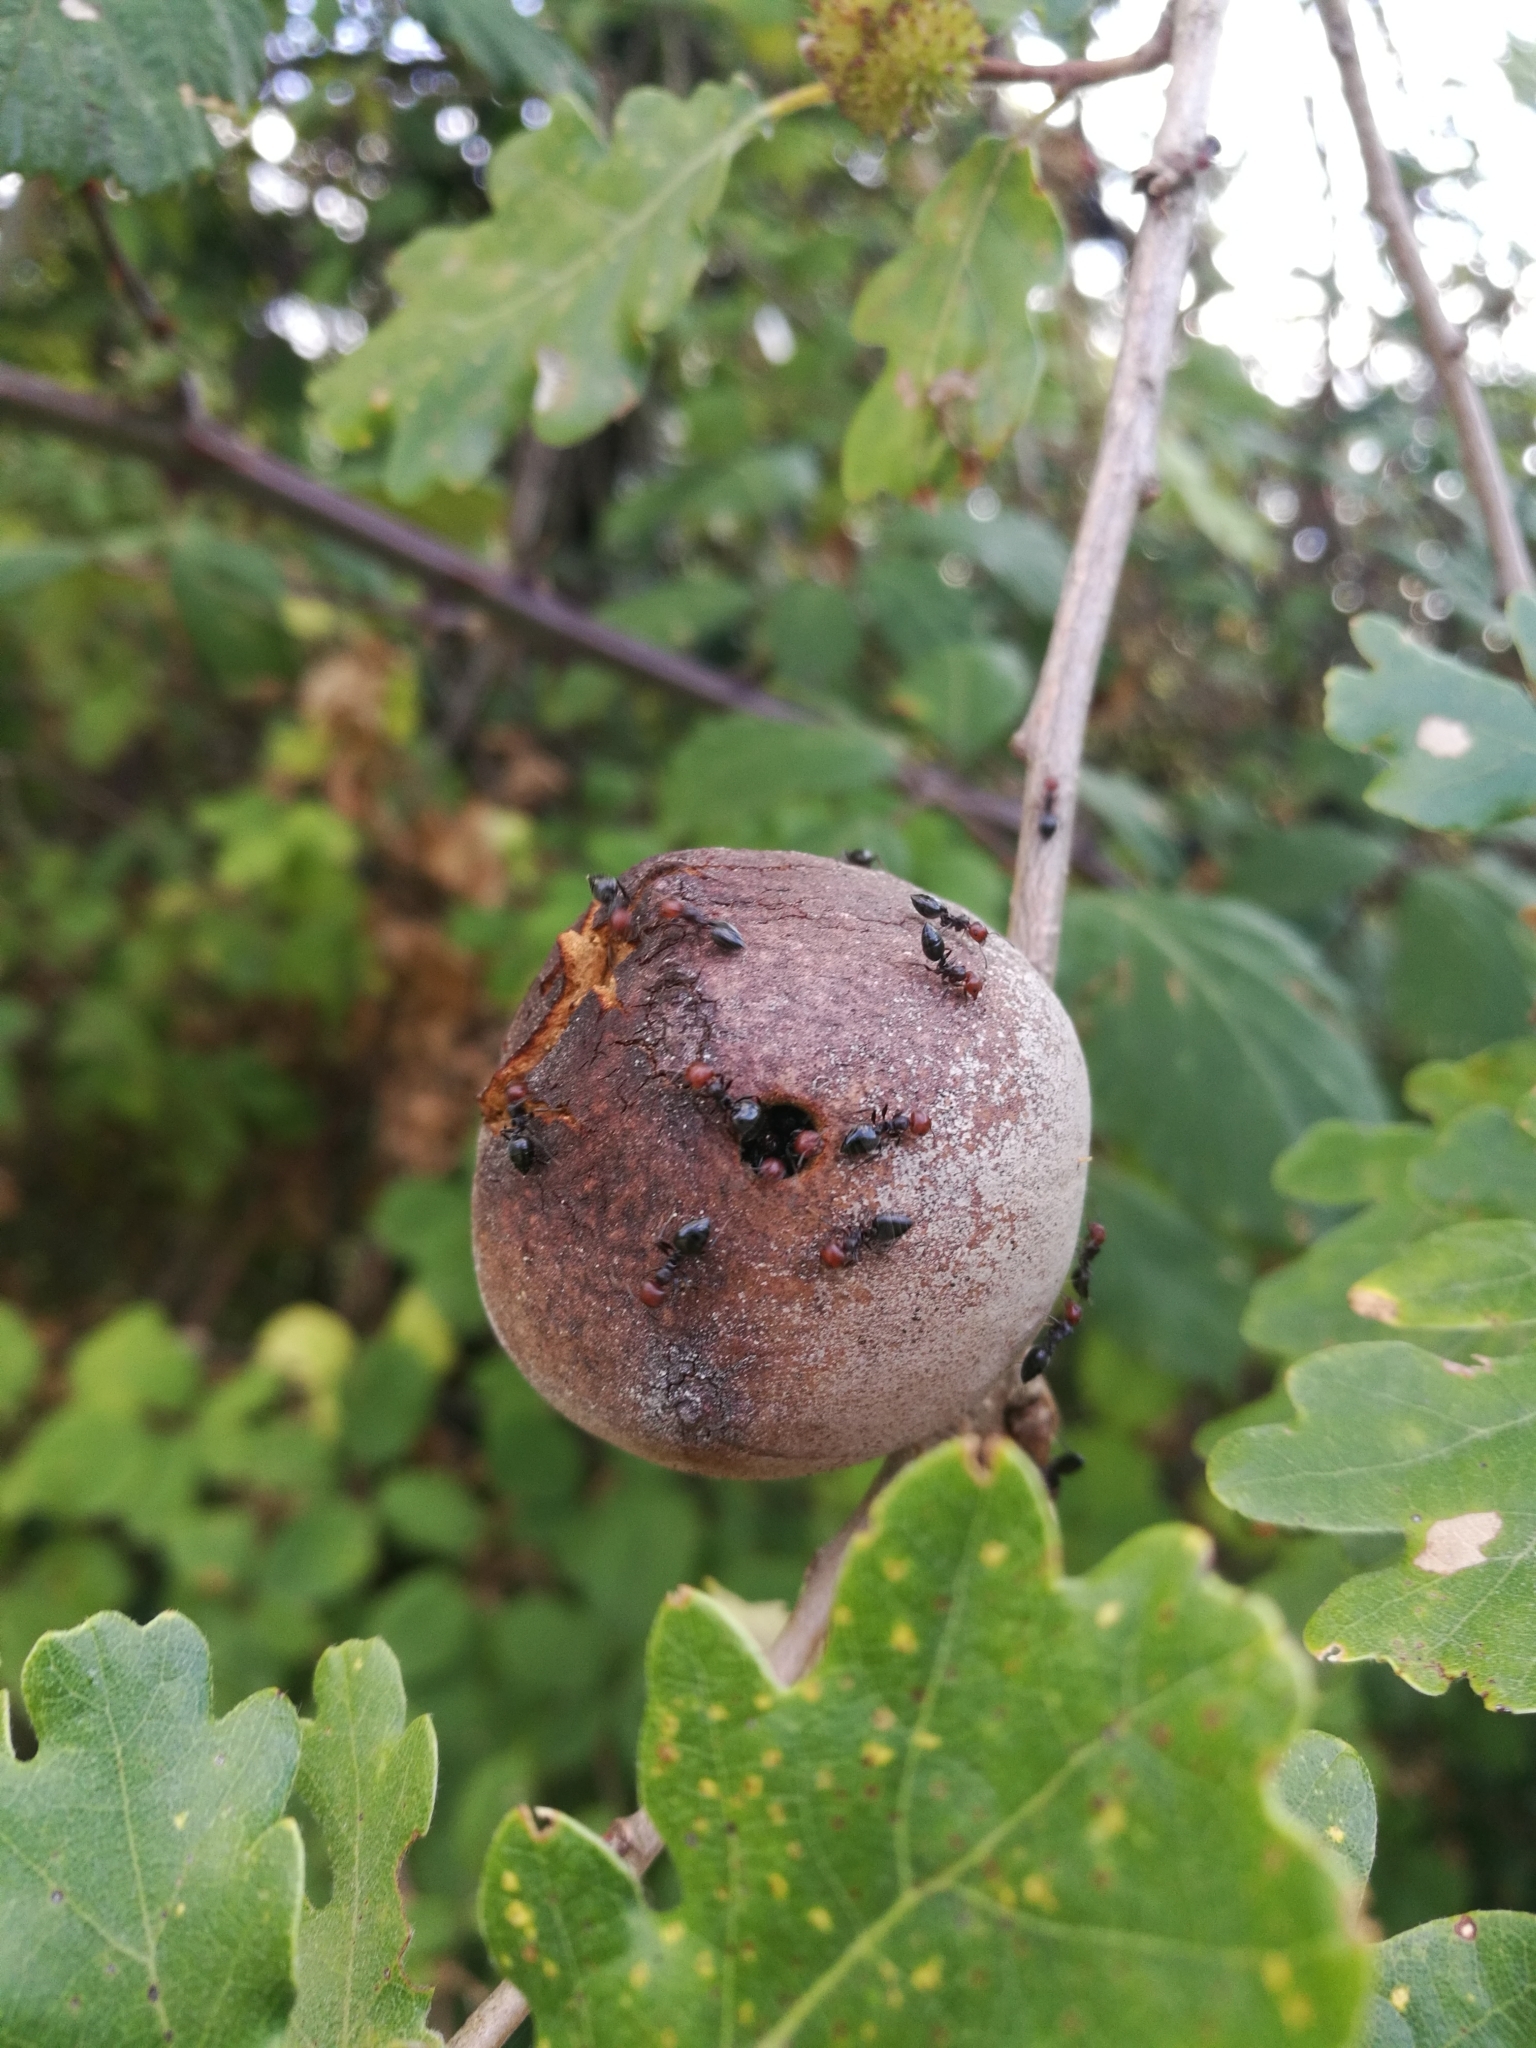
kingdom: Animalia
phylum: Arthropoda
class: Insecta
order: Hymenoptera
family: Formicidae
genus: Crematogaster
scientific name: Crematogaster scutellaris
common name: Fourmi du liège
